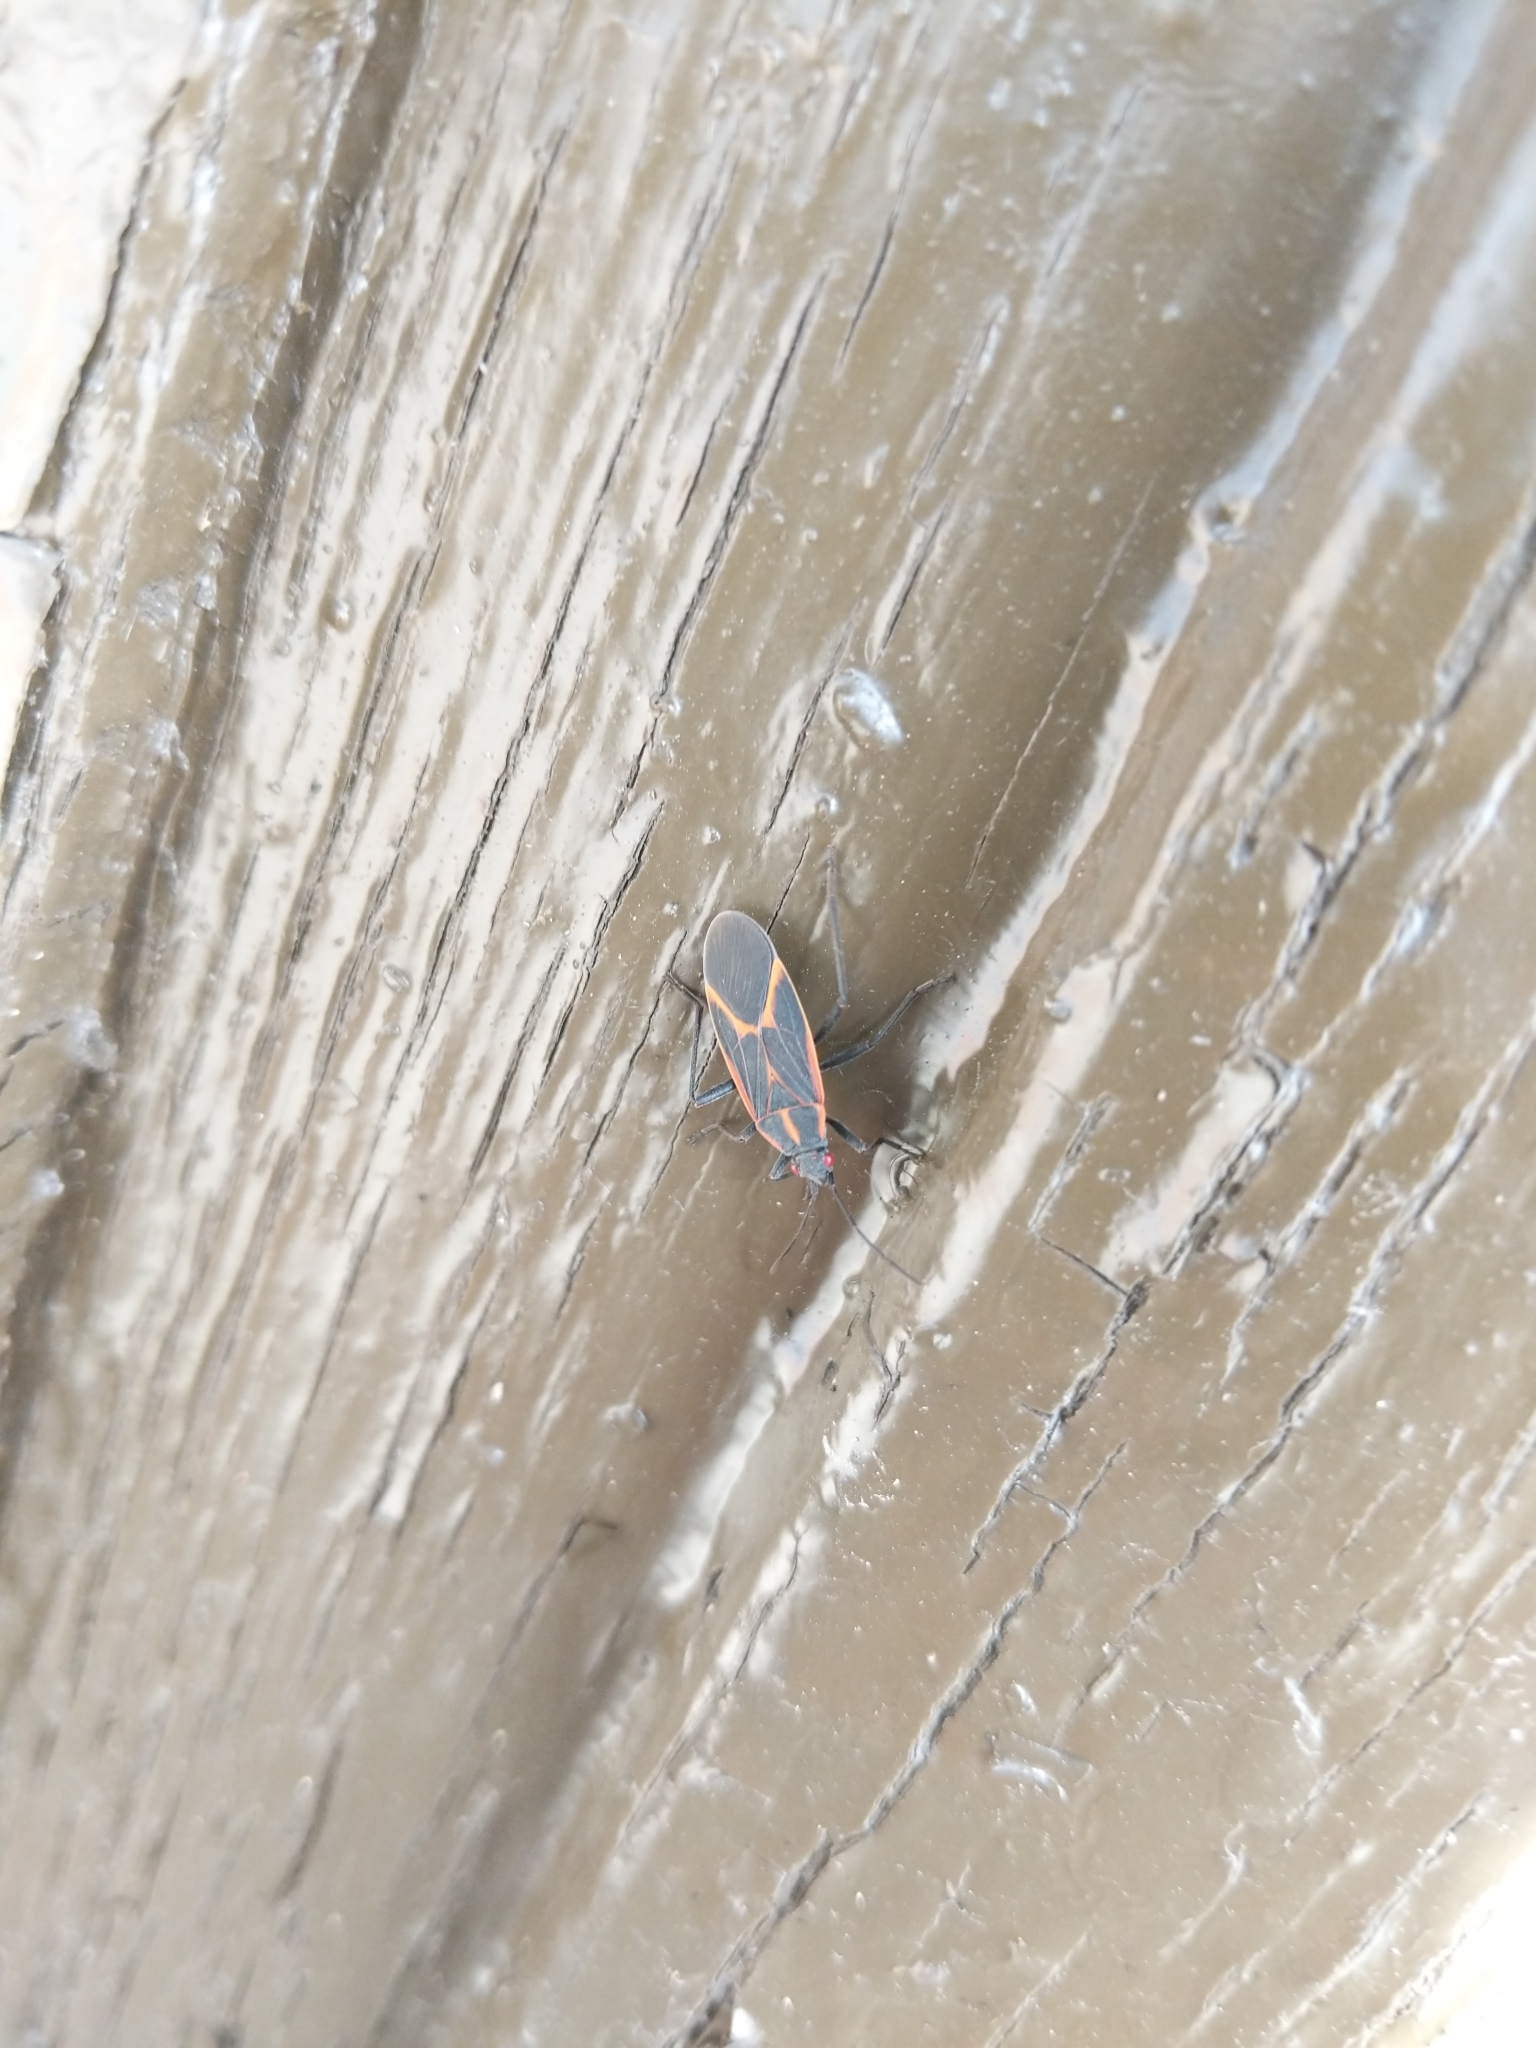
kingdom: Animalia
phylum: Arthropoda
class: Insecta
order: Hemiptera
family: Rhopalidae
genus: Boisea
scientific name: Boisea trivittata
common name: Boxelder bug
